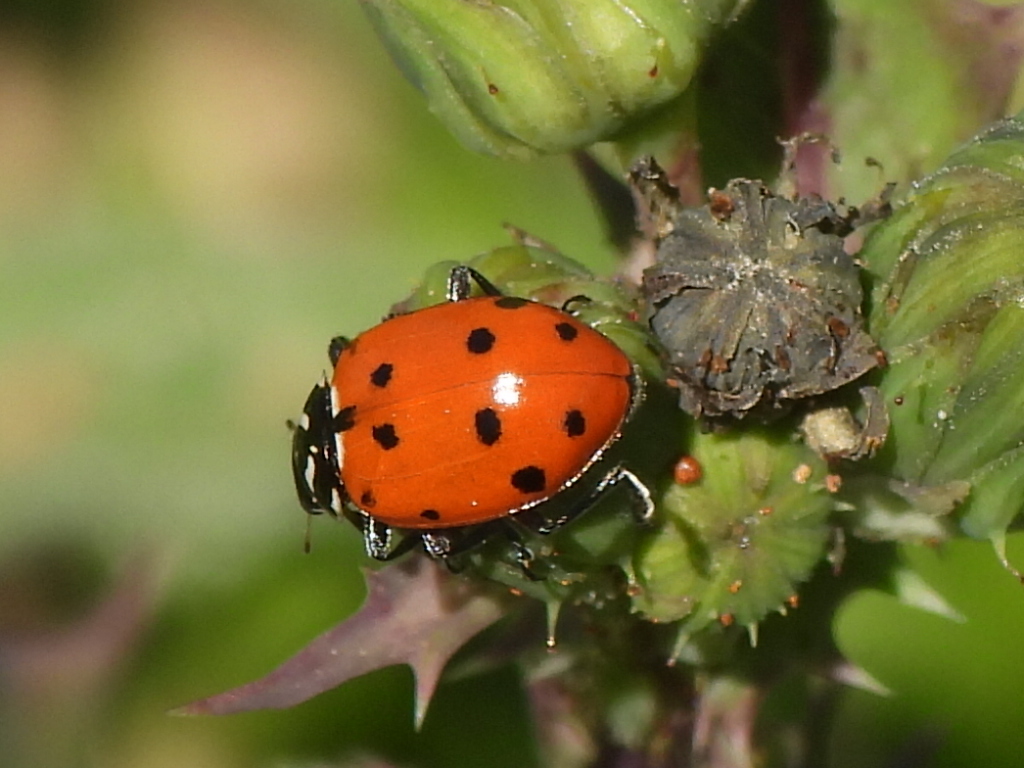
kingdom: Animalia
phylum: Arthropoda
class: Insecta
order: Coleoptera
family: Coccinellidae
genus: Hippodamia
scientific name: Hippodamia convergens
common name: Convergent lady beetle
